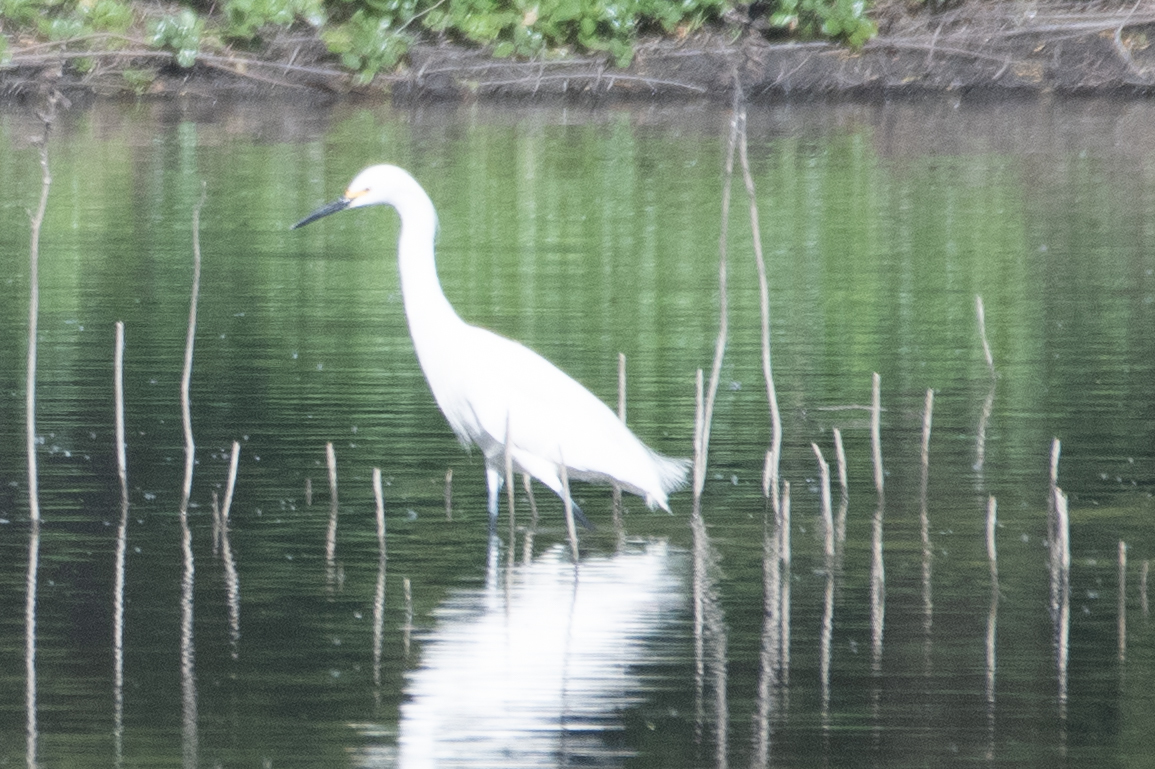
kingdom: Animalia
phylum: Chordata
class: Aves
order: Pelecaniformes
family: Ardeidae
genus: Egretta
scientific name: Egretta thula
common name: Snowy egret
